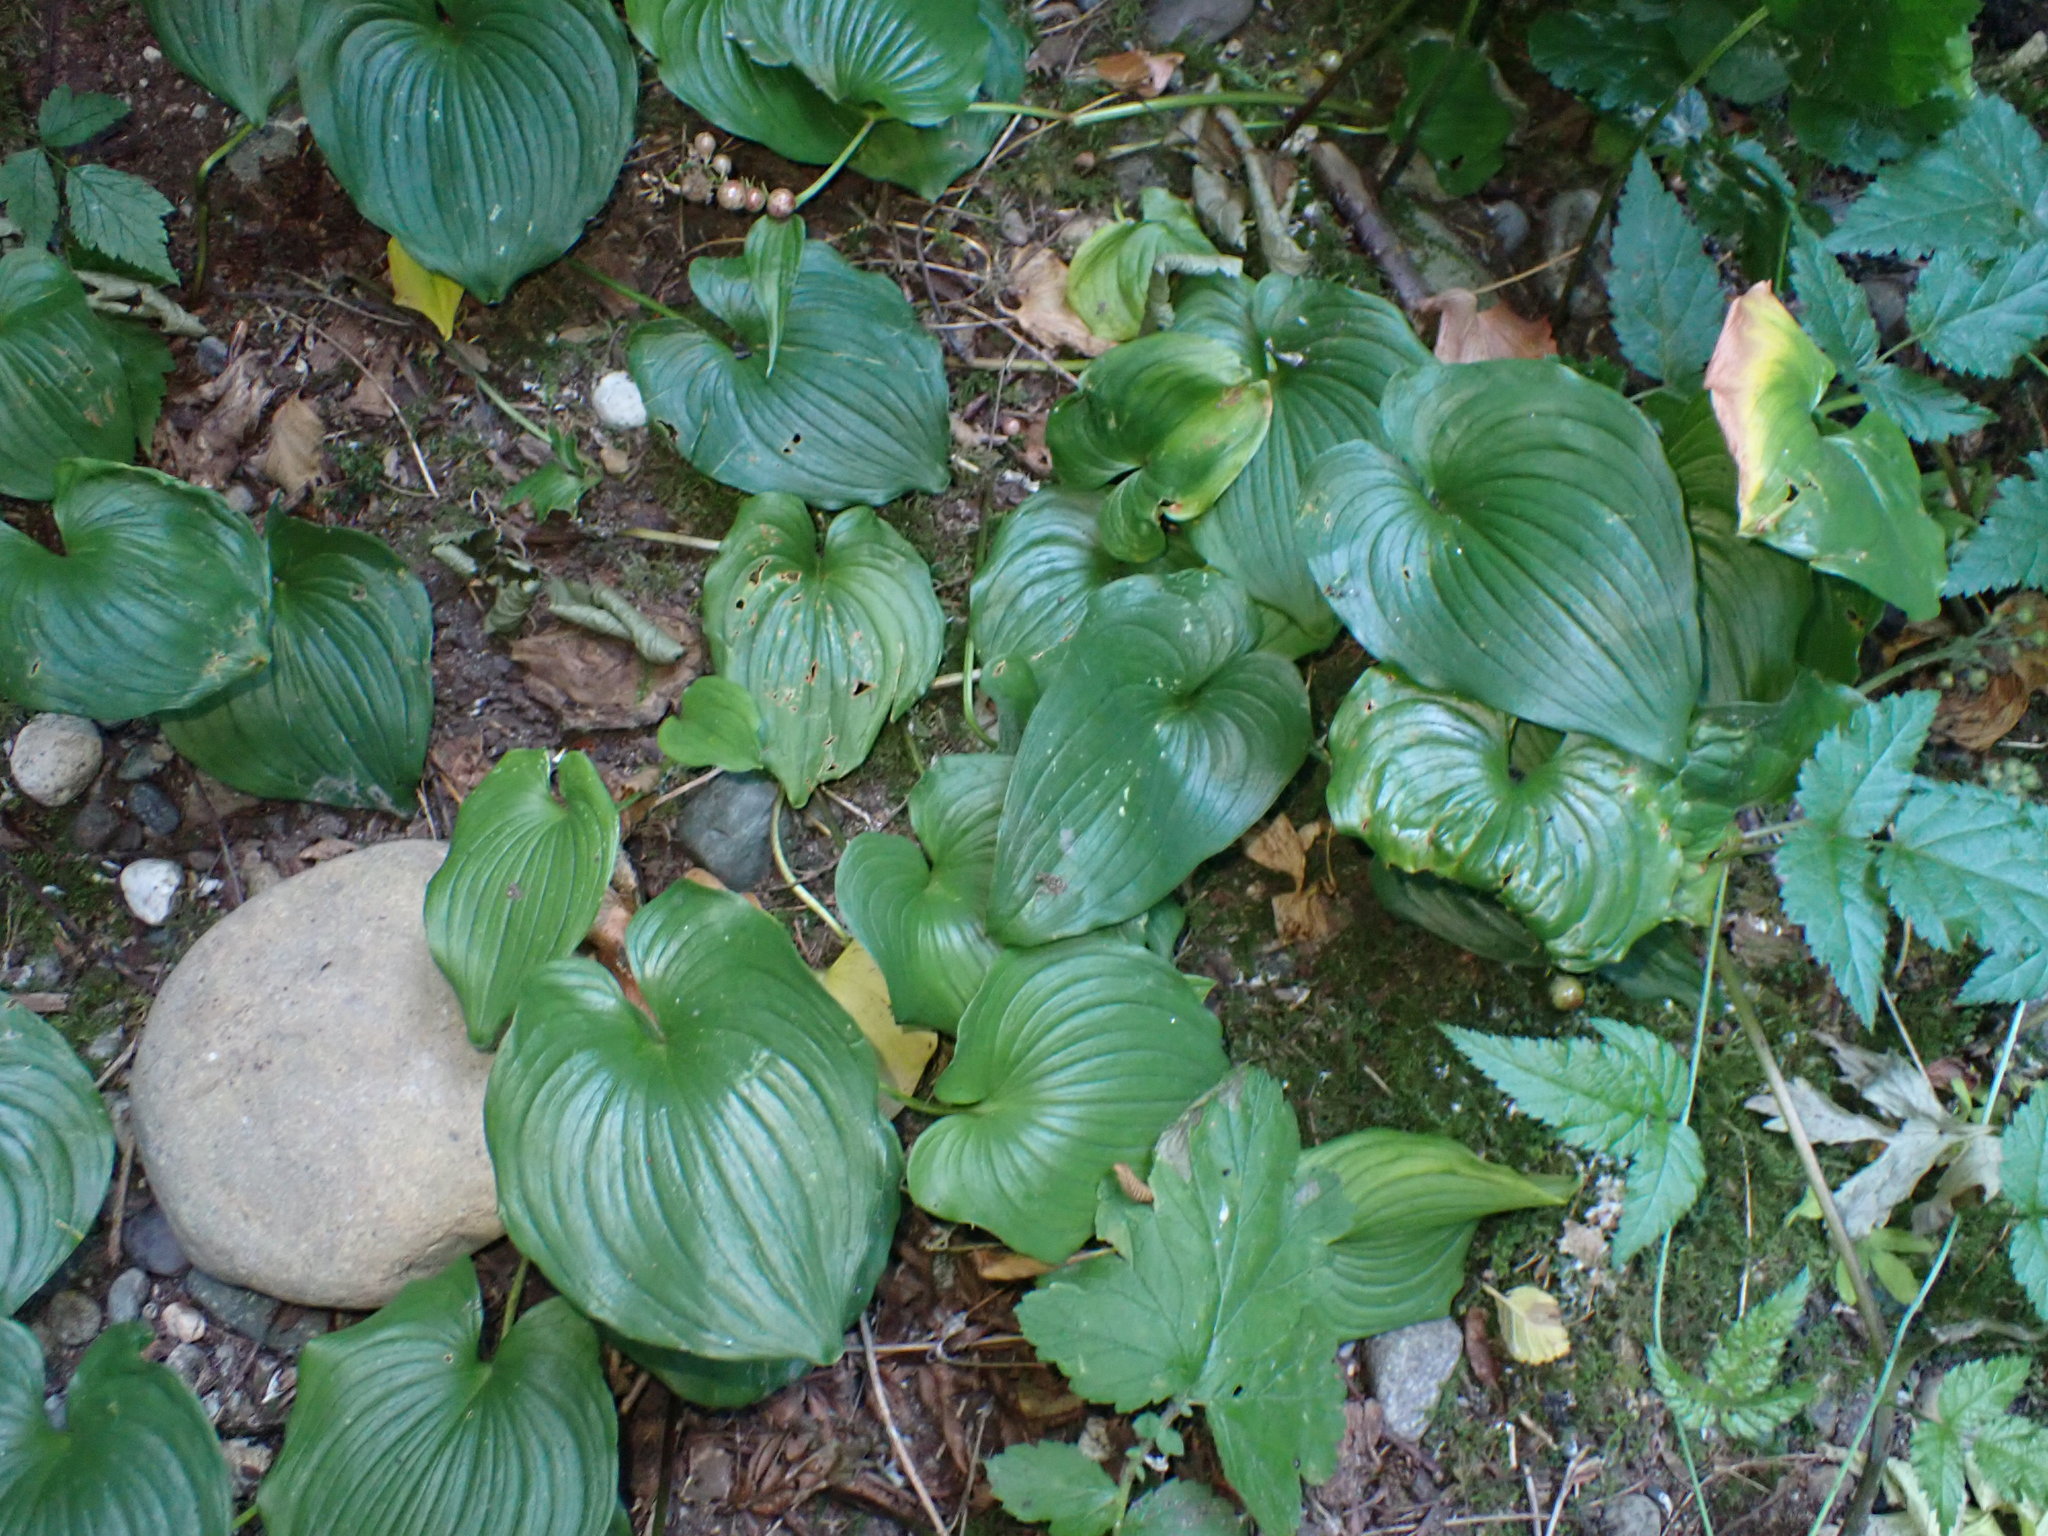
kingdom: Plantae
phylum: Tracheophyta
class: Liliopsida
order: Asparagales
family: Asparagaceae
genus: Maianthemum
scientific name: Maianthemum dilatatum
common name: False lily-of-the-valley
